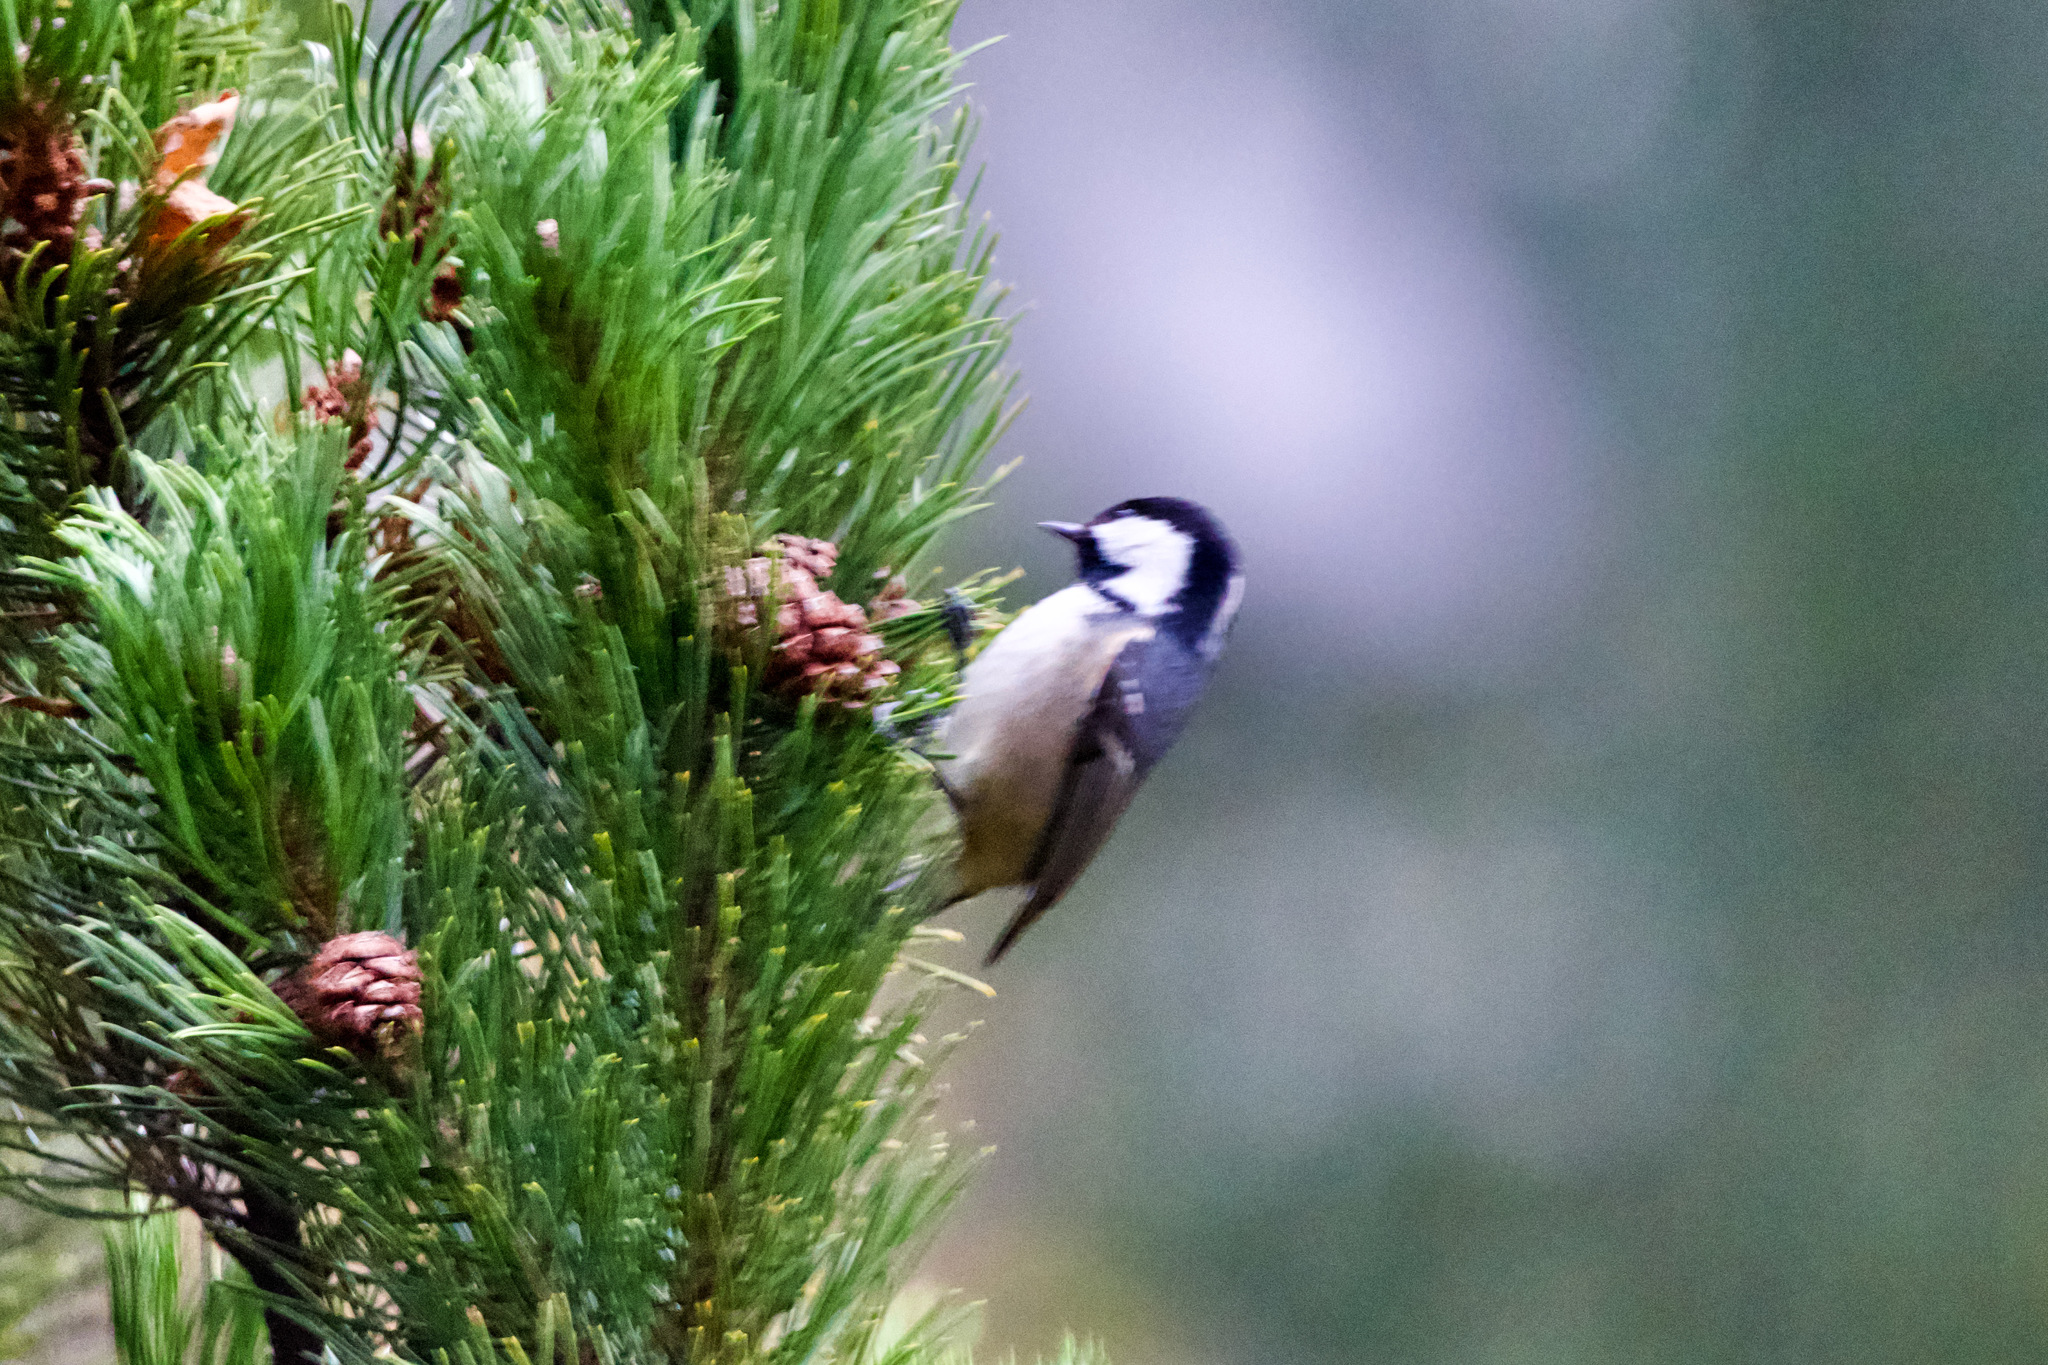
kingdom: Animalia
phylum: Chordata
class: Aves
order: Passeriformes
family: Paridae
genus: Periparus
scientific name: Periparus ater
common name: Coal tit
